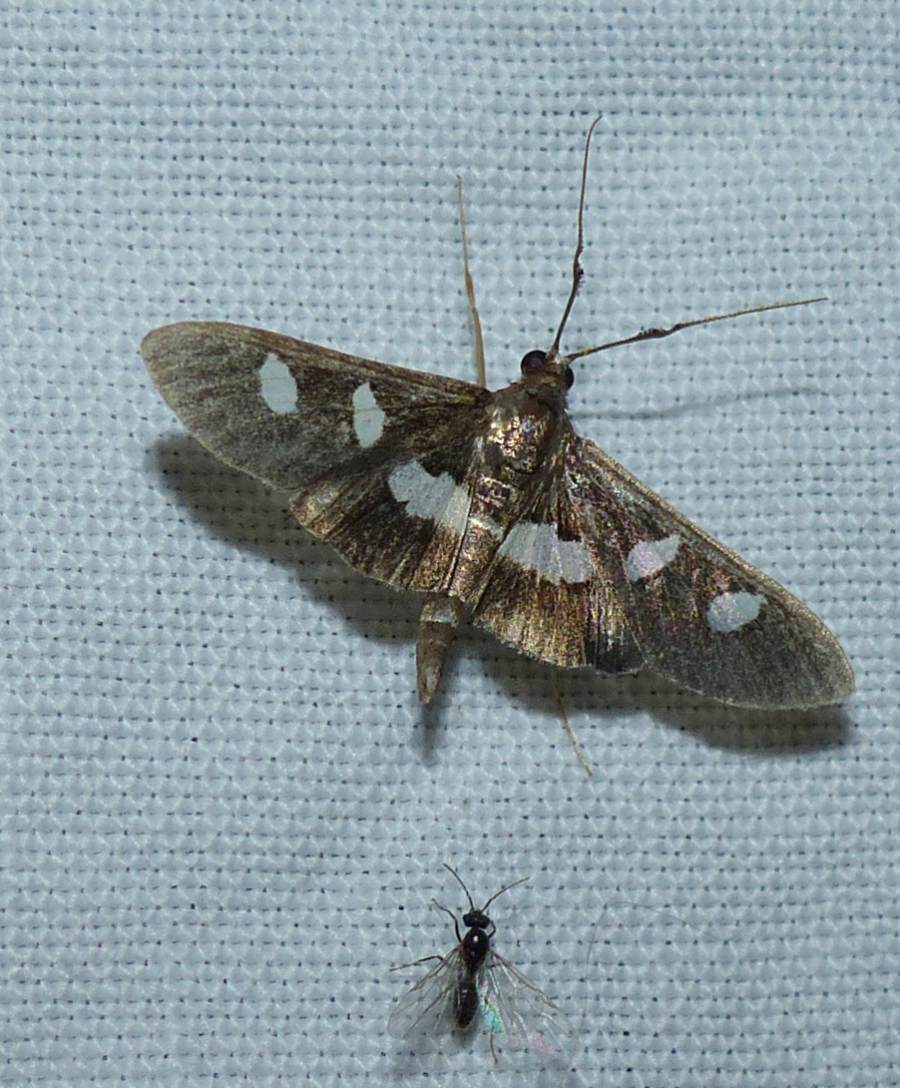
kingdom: Animalia
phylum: Arthropoda
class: Insecta
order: Lepidoptera
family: Crambidae
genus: Desmia
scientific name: Desmia
